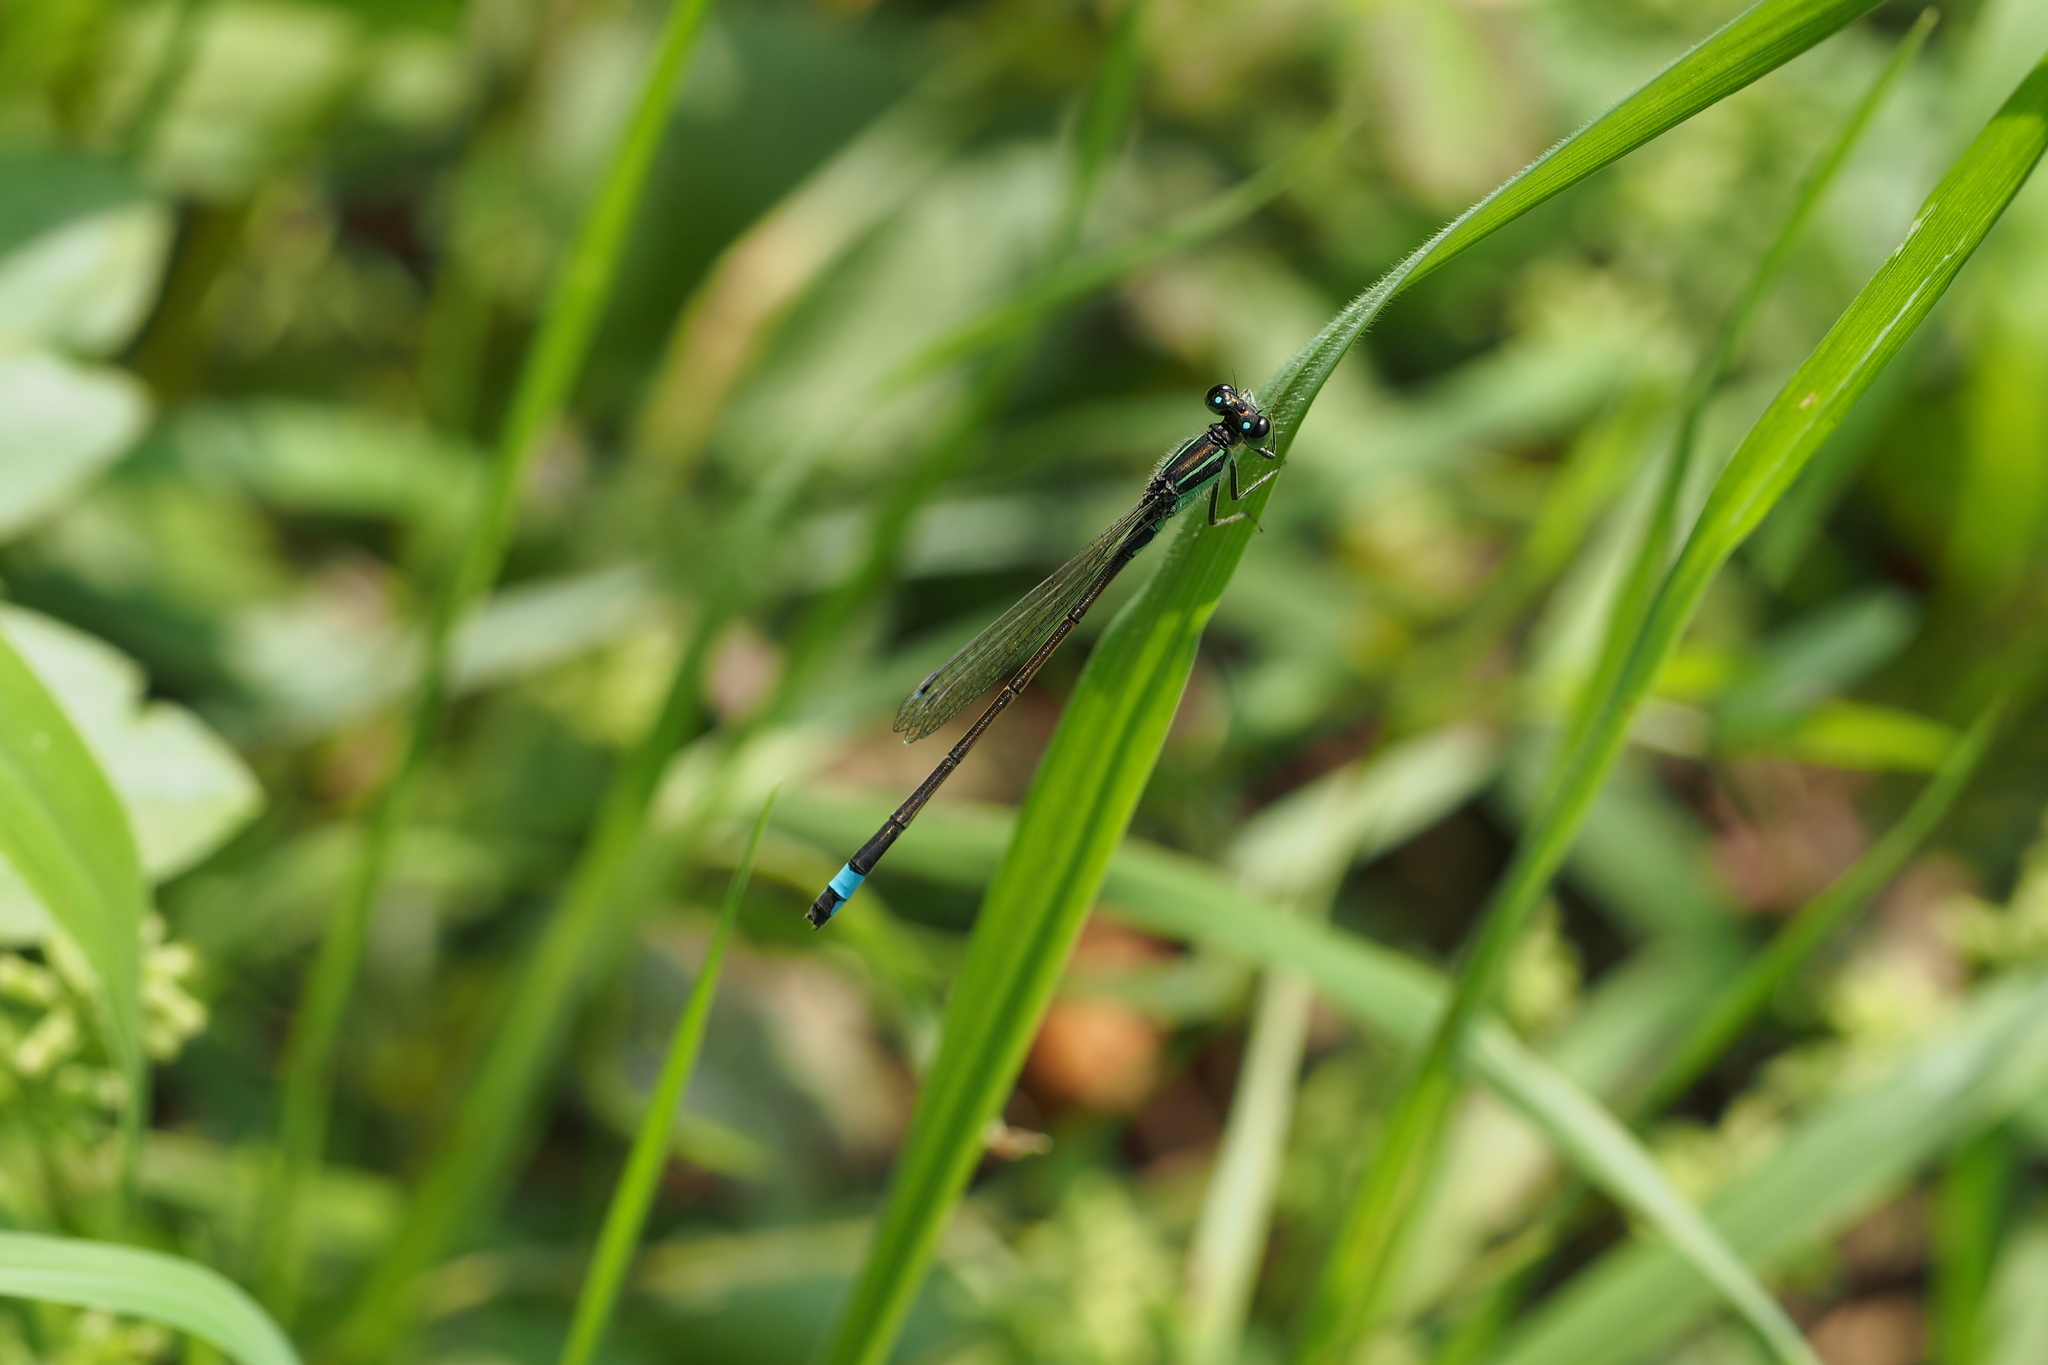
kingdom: Animalia
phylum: Arthropoda
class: Insecta
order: Odonata
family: Coenagrionidae
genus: Ischnura
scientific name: Ischnura senegalensis
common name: Tropical bluetail
